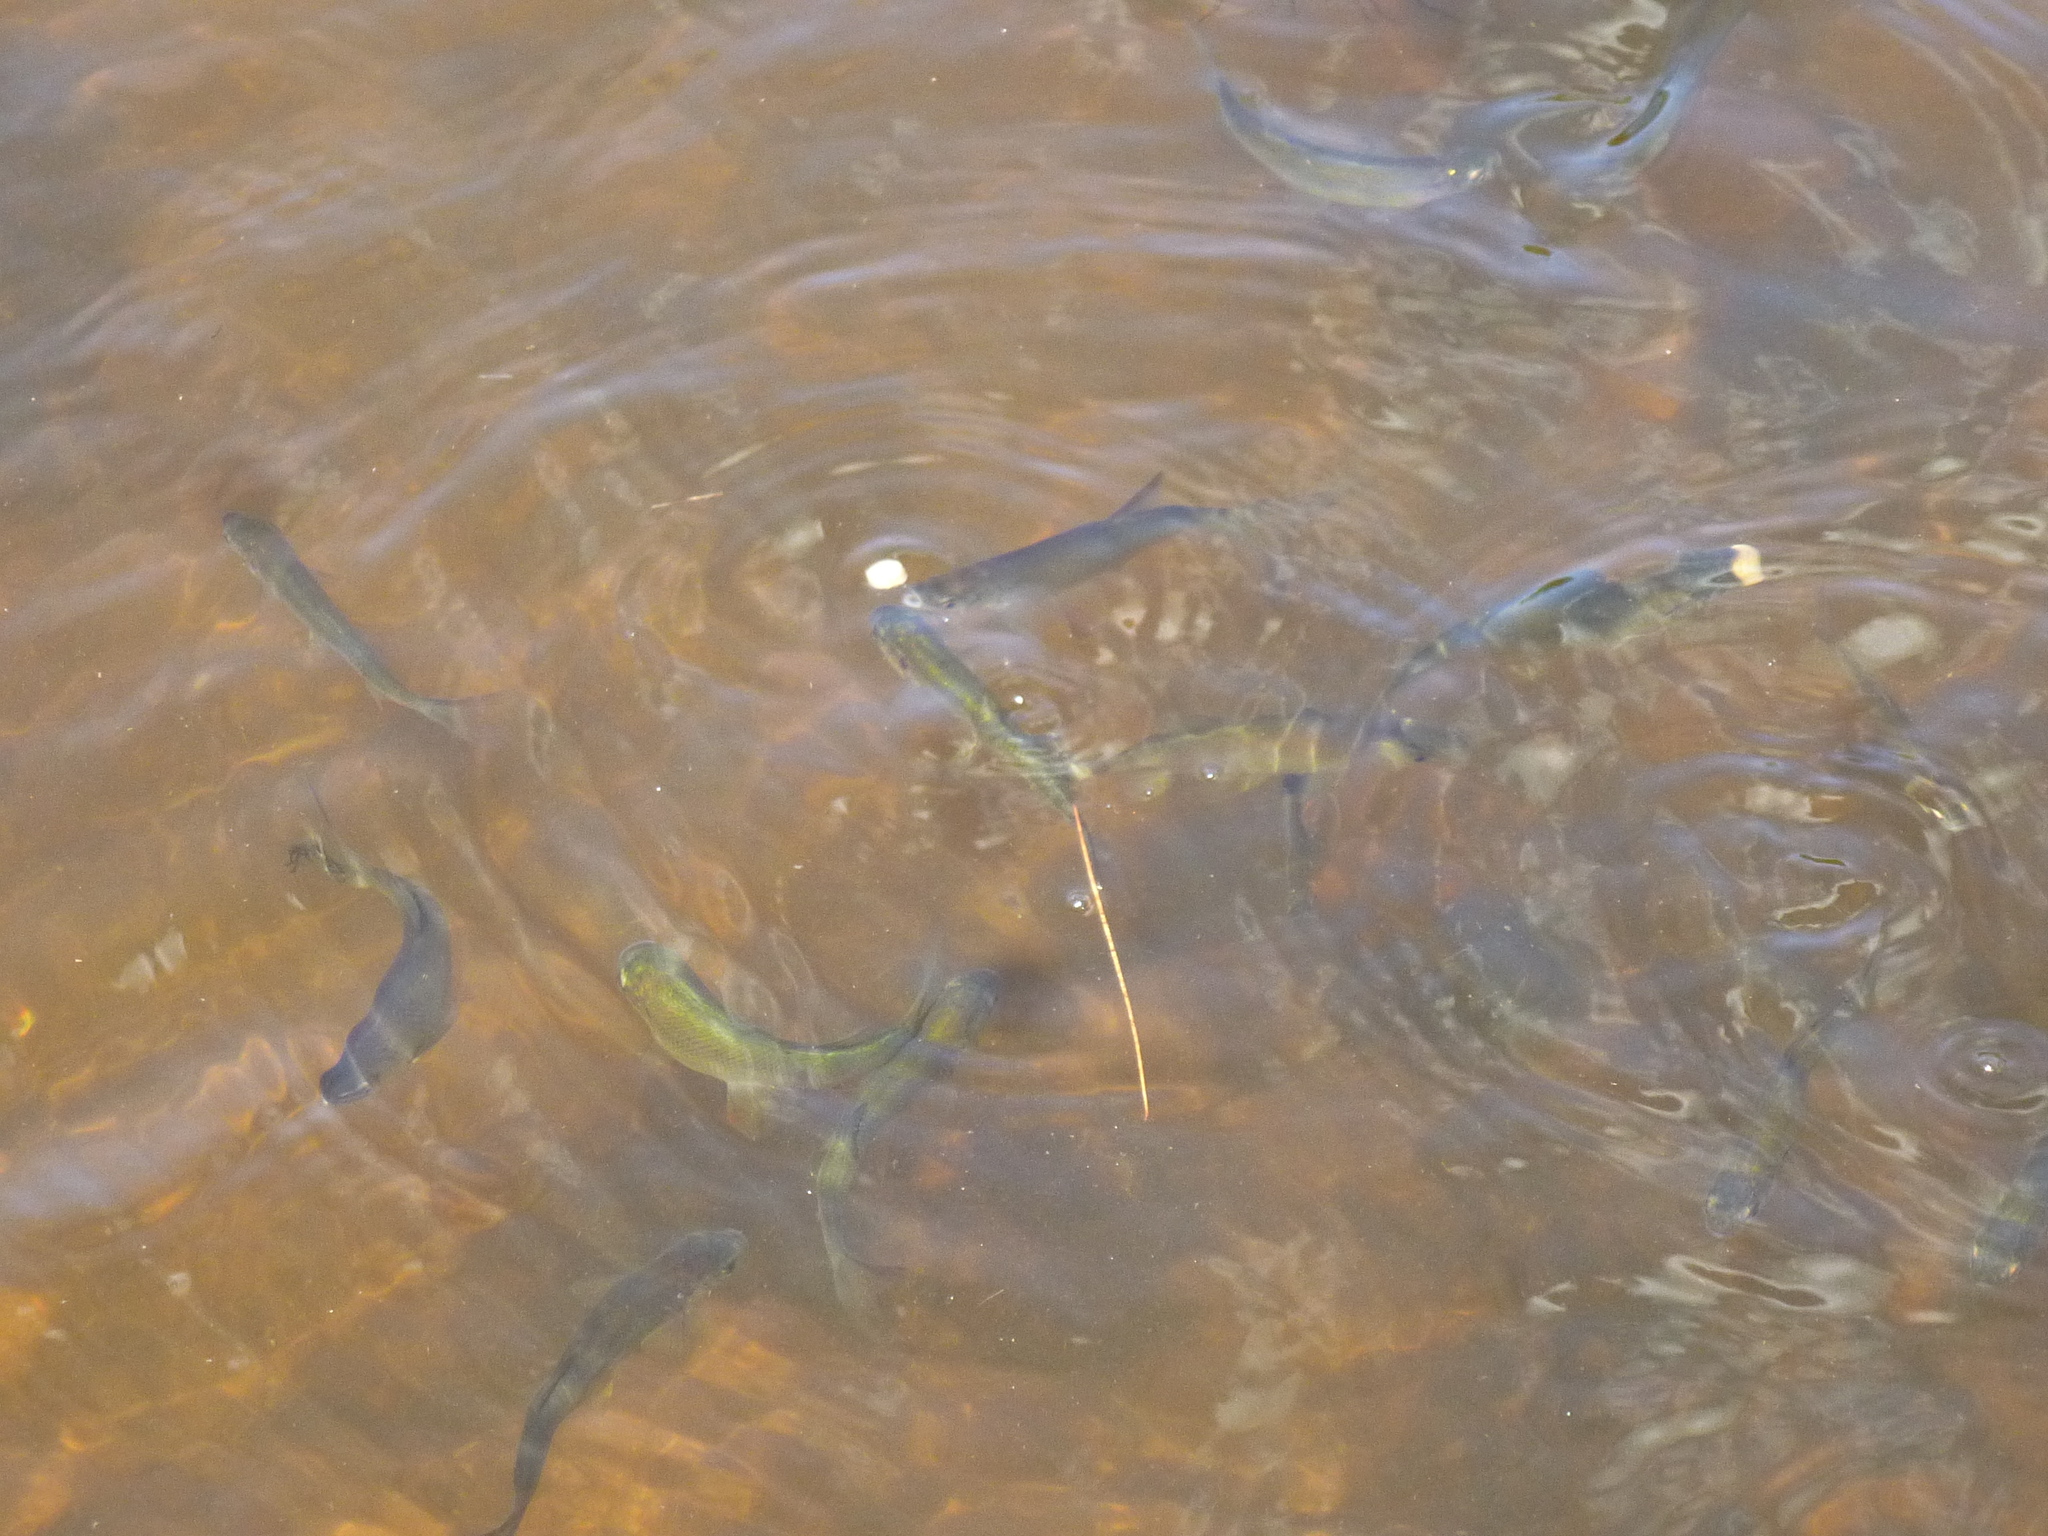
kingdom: Animalia
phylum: Chordata
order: Cypriniformes
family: Cyprinidae
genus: Notemigonus
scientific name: Notemigonus crysoleucas
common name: Golden shiner
